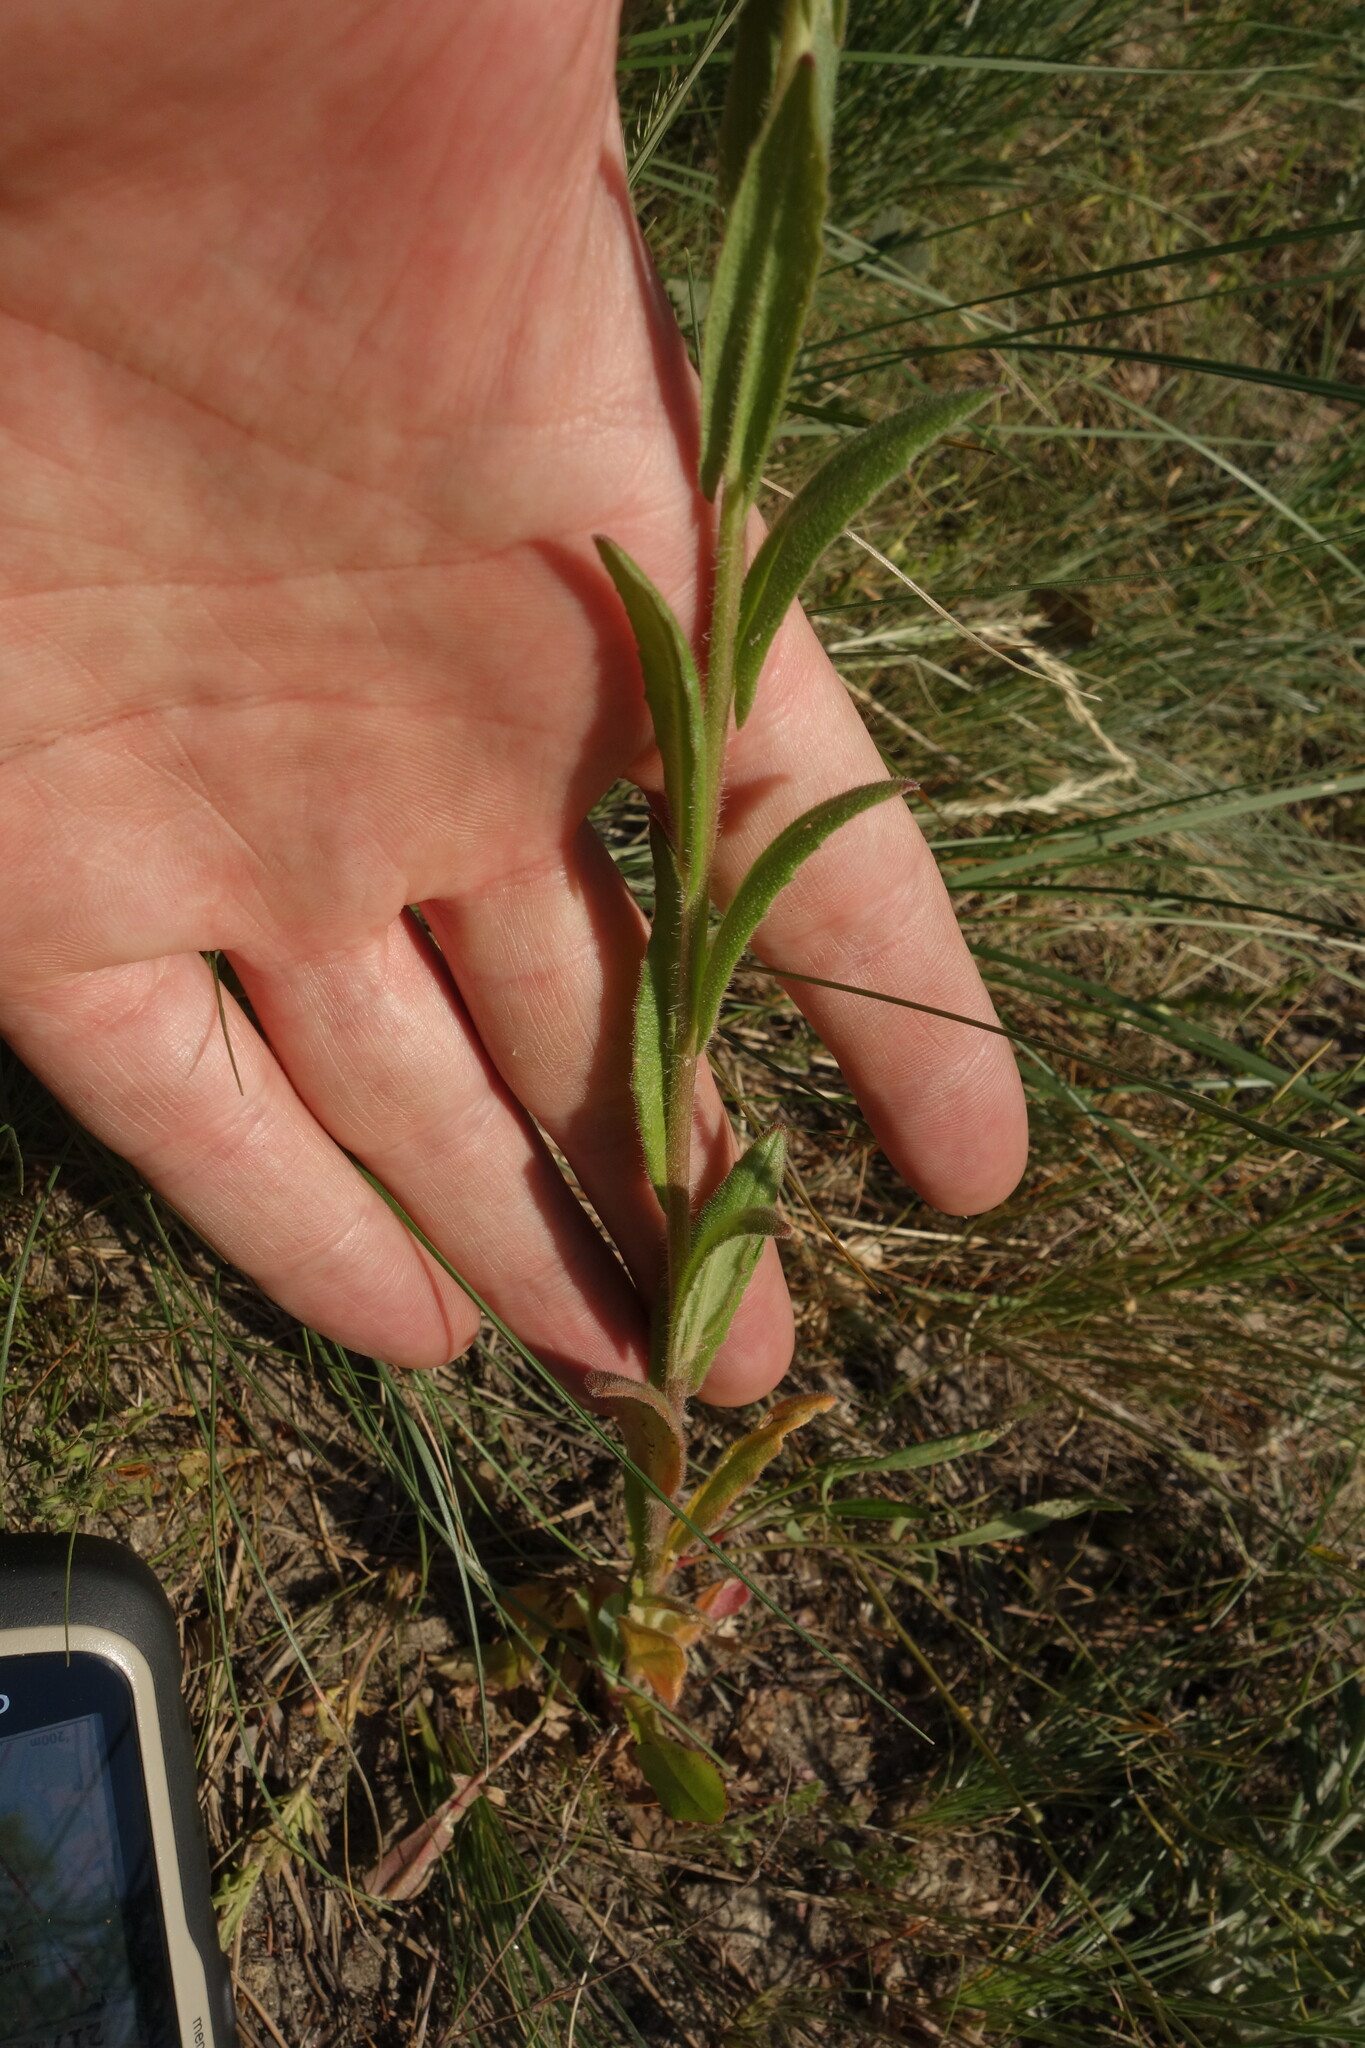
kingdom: Plantae
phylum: Tracheophyta
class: Magnoliopsida
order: Brassicales
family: Brassicaceae
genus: Camelina
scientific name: Camelina microcarpa
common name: Lesser gold-of-pleasure
